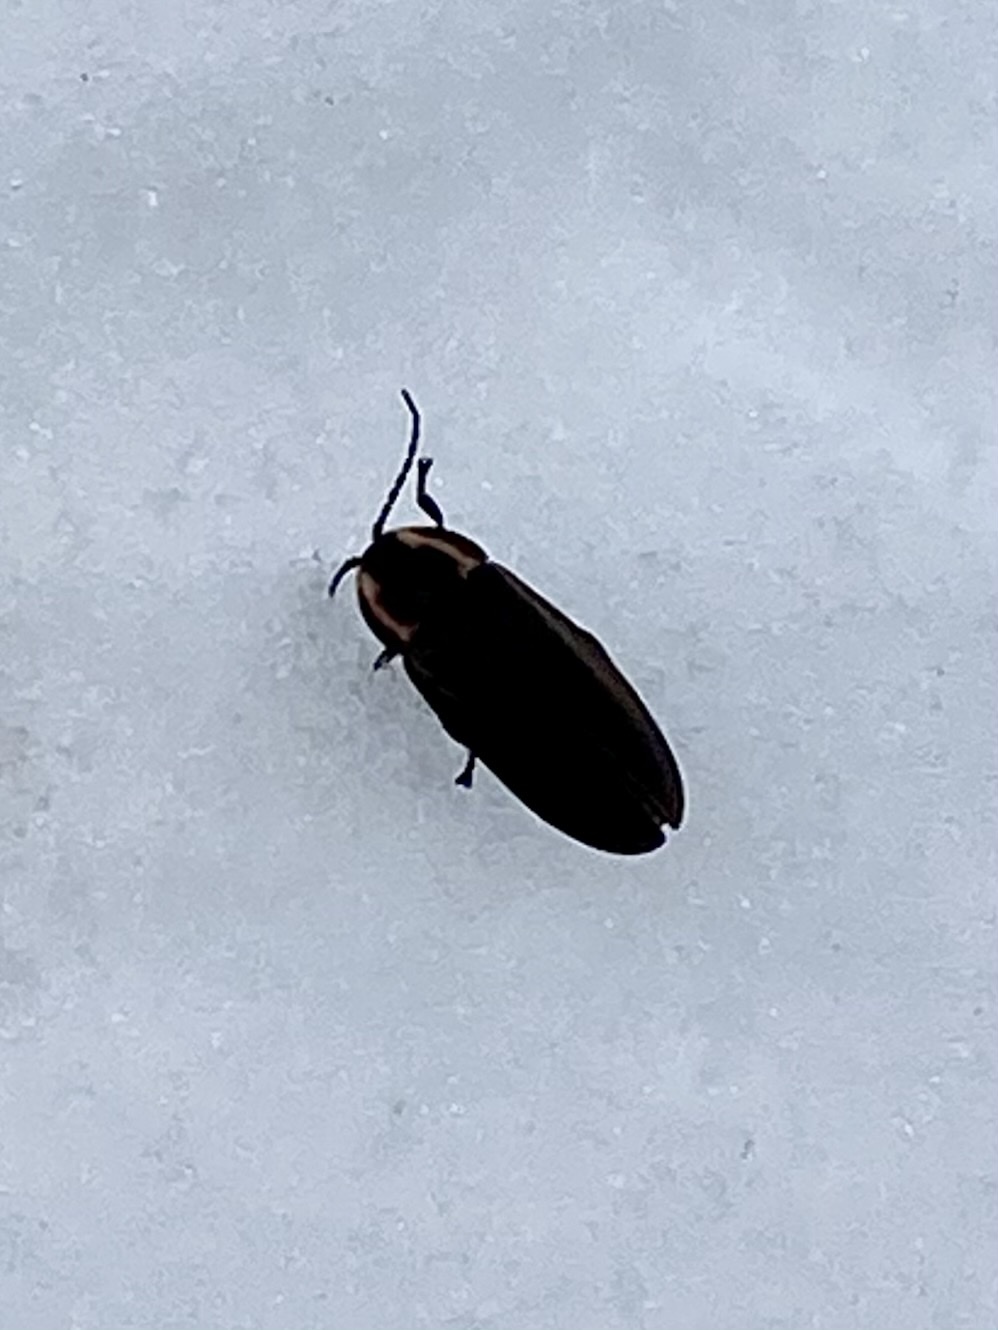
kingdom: Animalia
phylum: Arthropoda
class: Insecta
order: Coleoptera
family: Lampyridae
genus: Photinus
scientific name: Photinus corrusca
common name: Winter firefly
